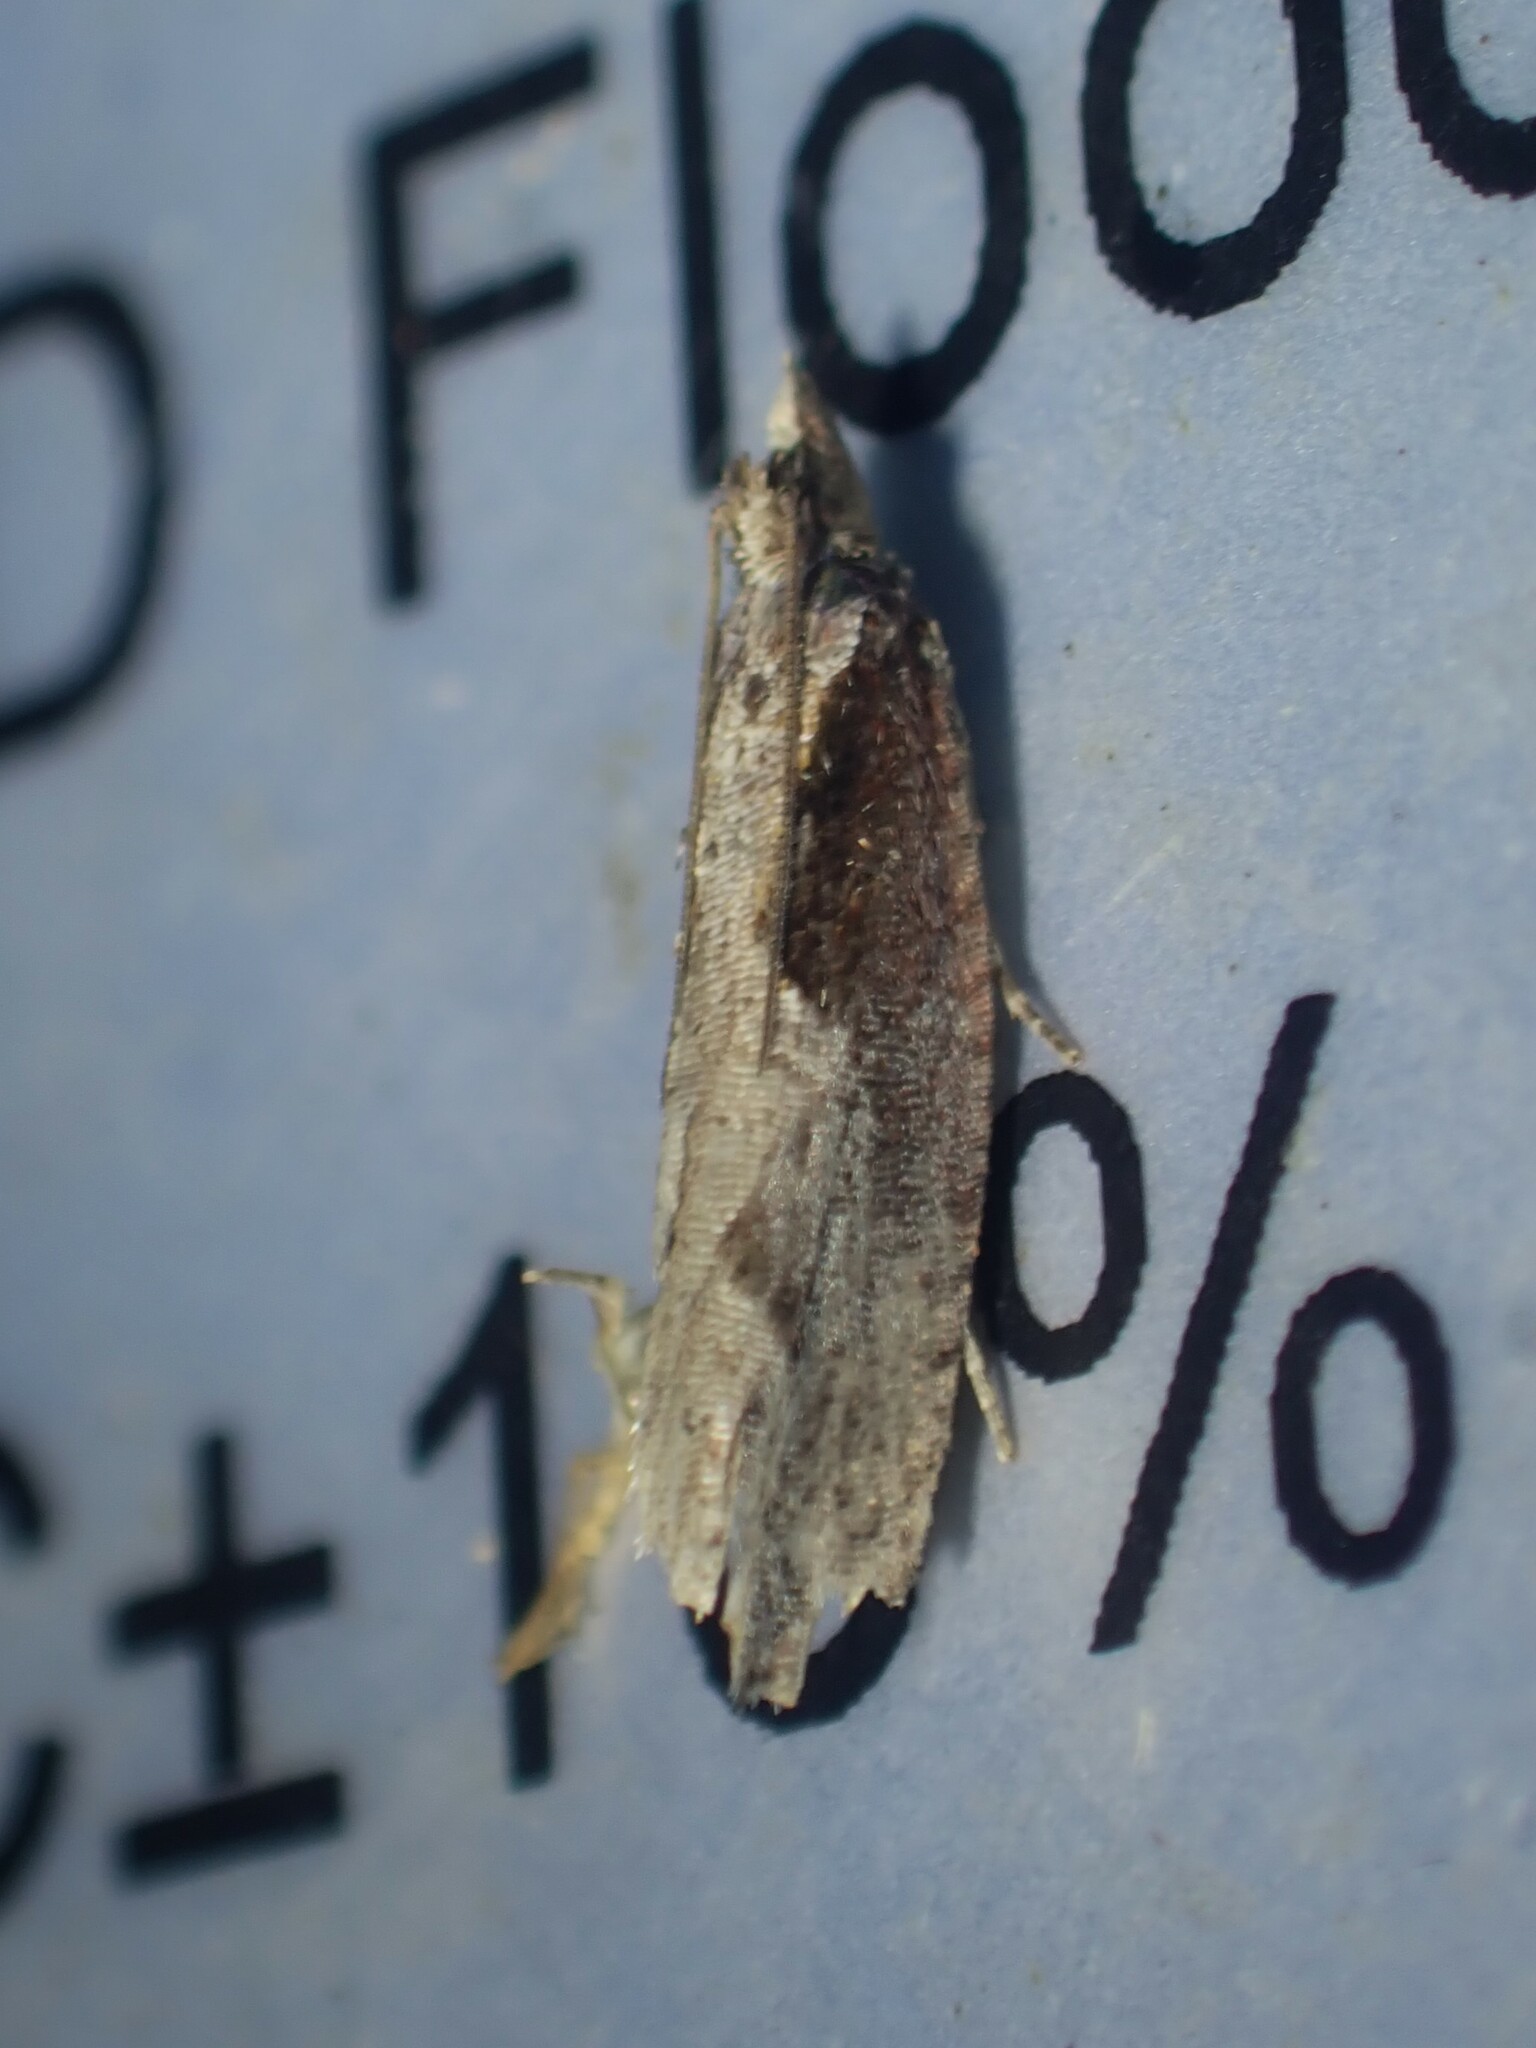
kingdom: Animalia
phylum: Arthropoda
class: Insecta
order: Lepidoptera
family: Tortricidae
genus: Epinotia
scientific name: Epinotia lindana
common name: Diamondback epinotia moth
